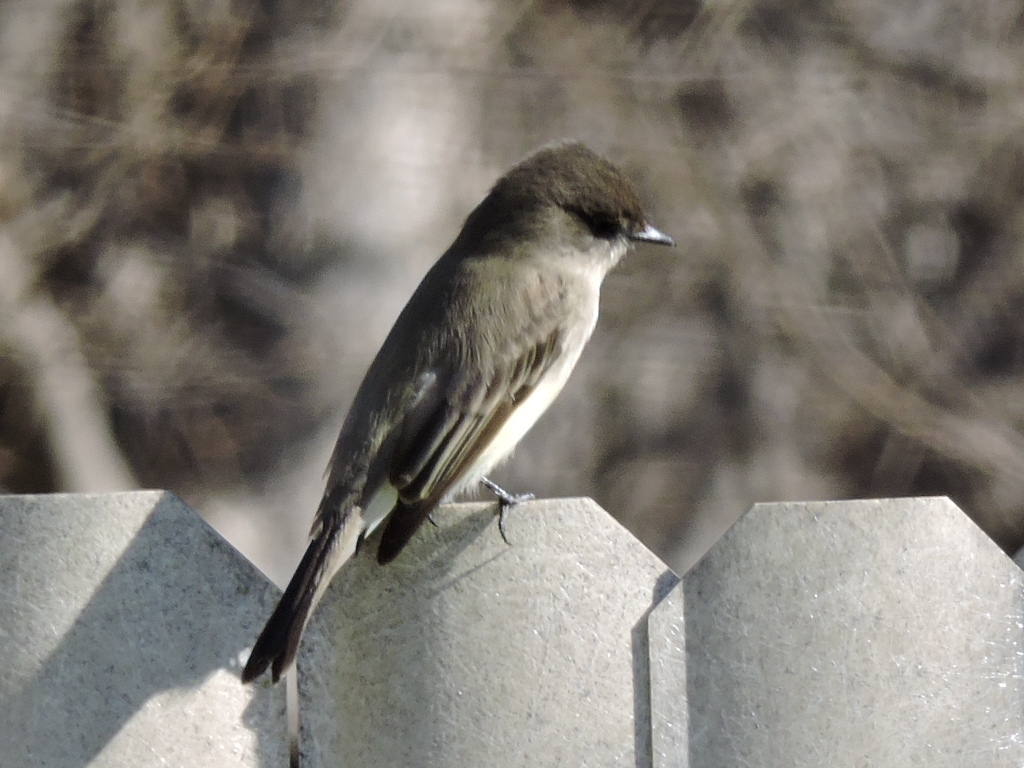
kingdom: Animalia
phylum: Chordata
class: Aves
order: Passeriformes
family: Tyrannidae
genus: Sayornis
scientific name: Sayornis phoebe
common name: Eastern phoebe
